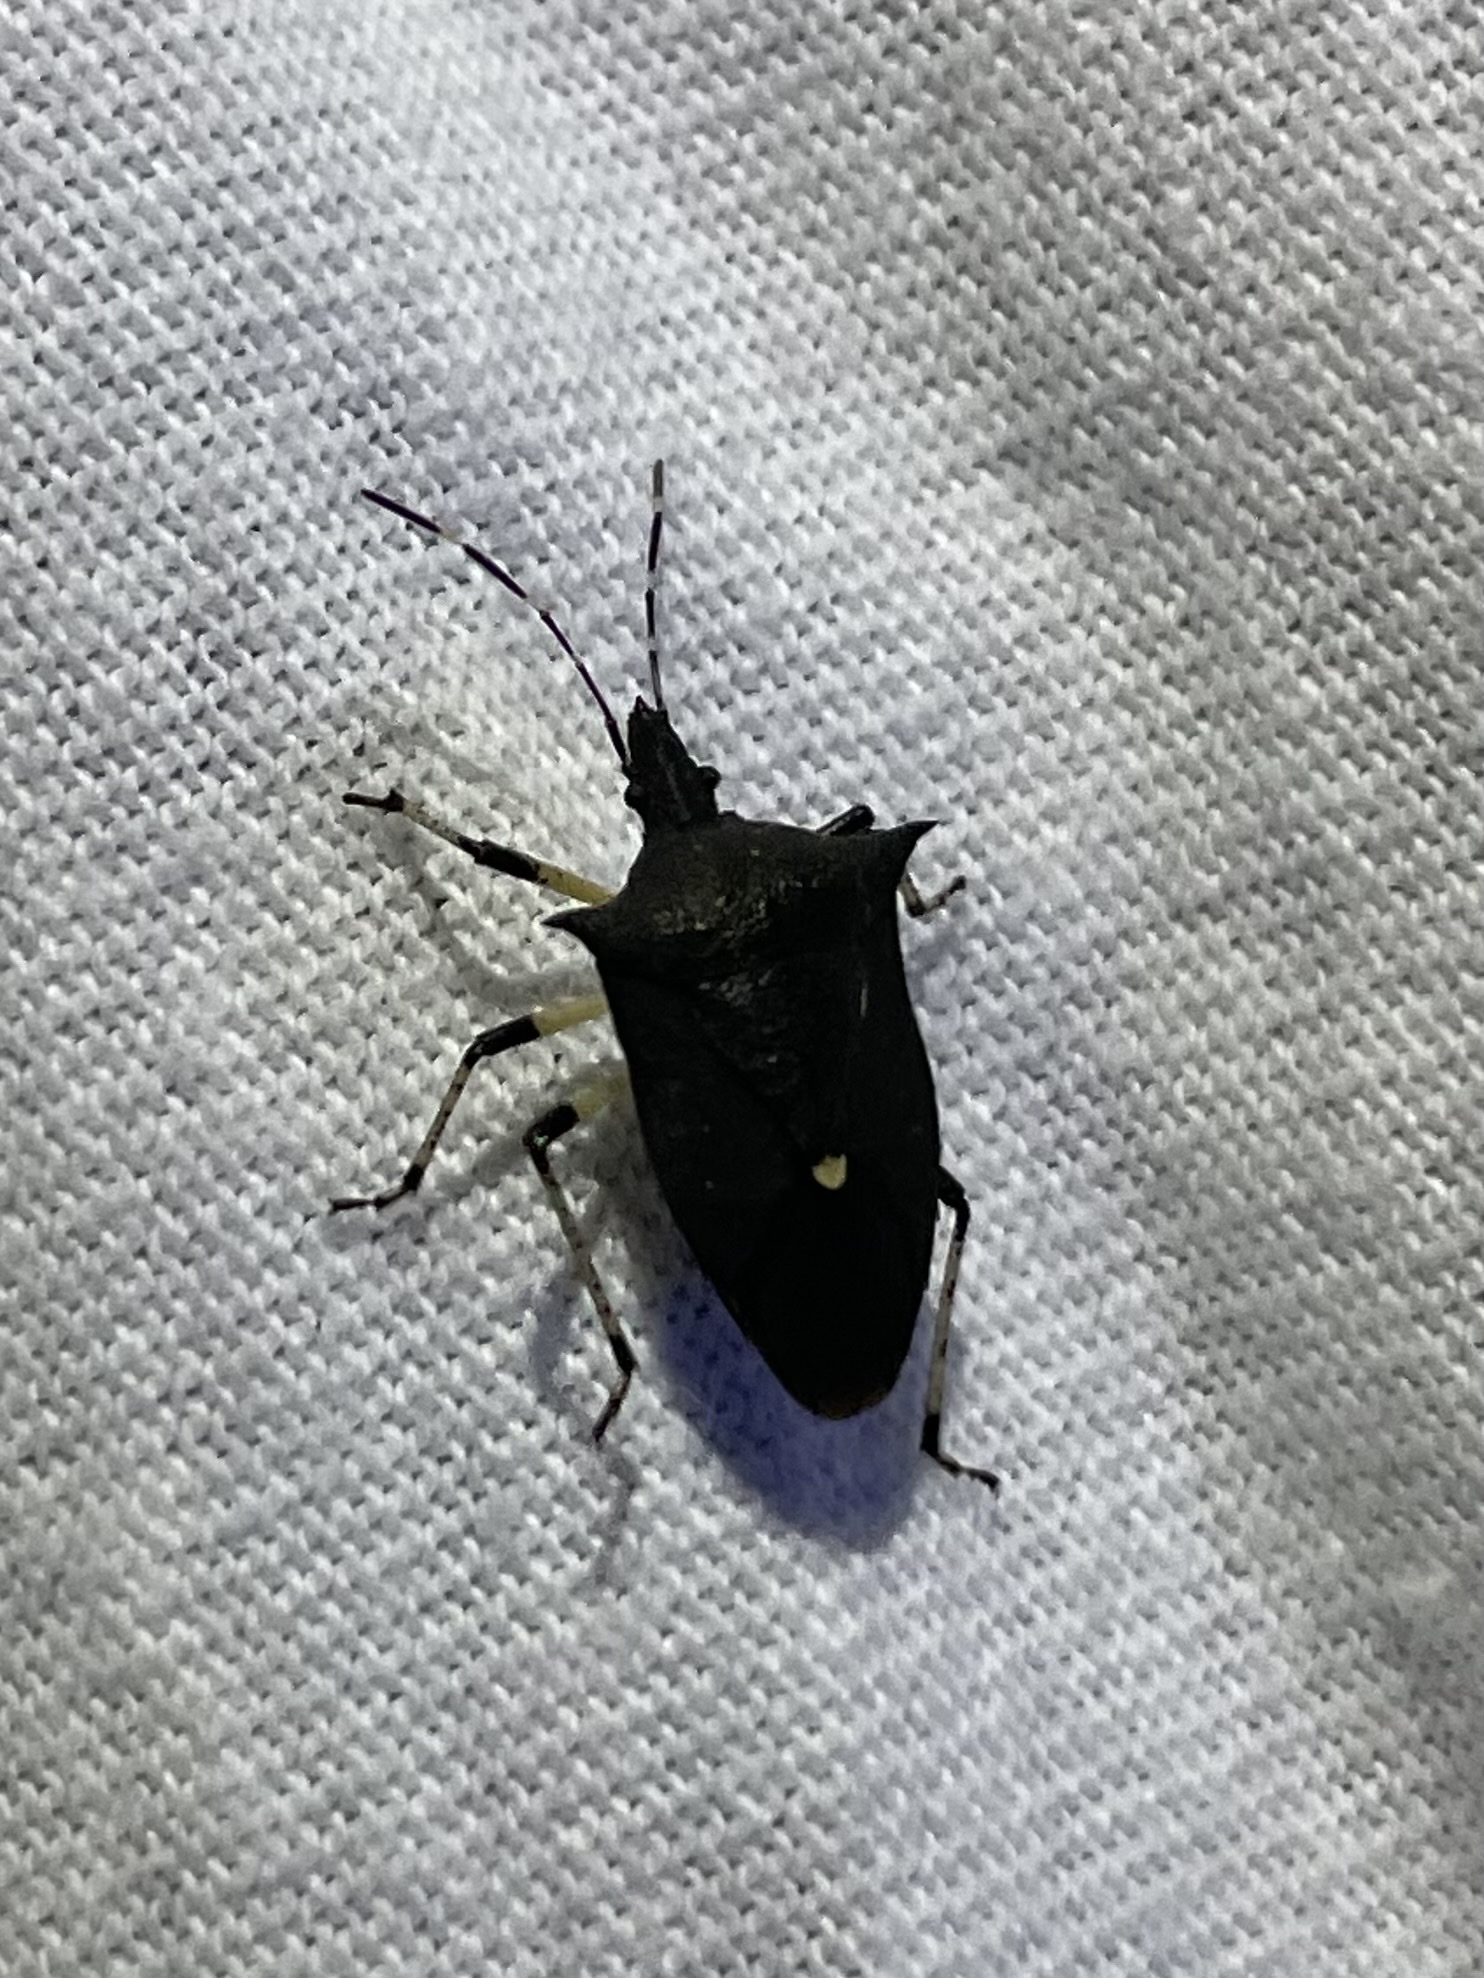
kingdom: Animalia
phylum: Arthropoda
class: Insecta
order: Hemiptera
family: Pentatomidae
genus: Proxys
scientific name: Proxys punctulatus
